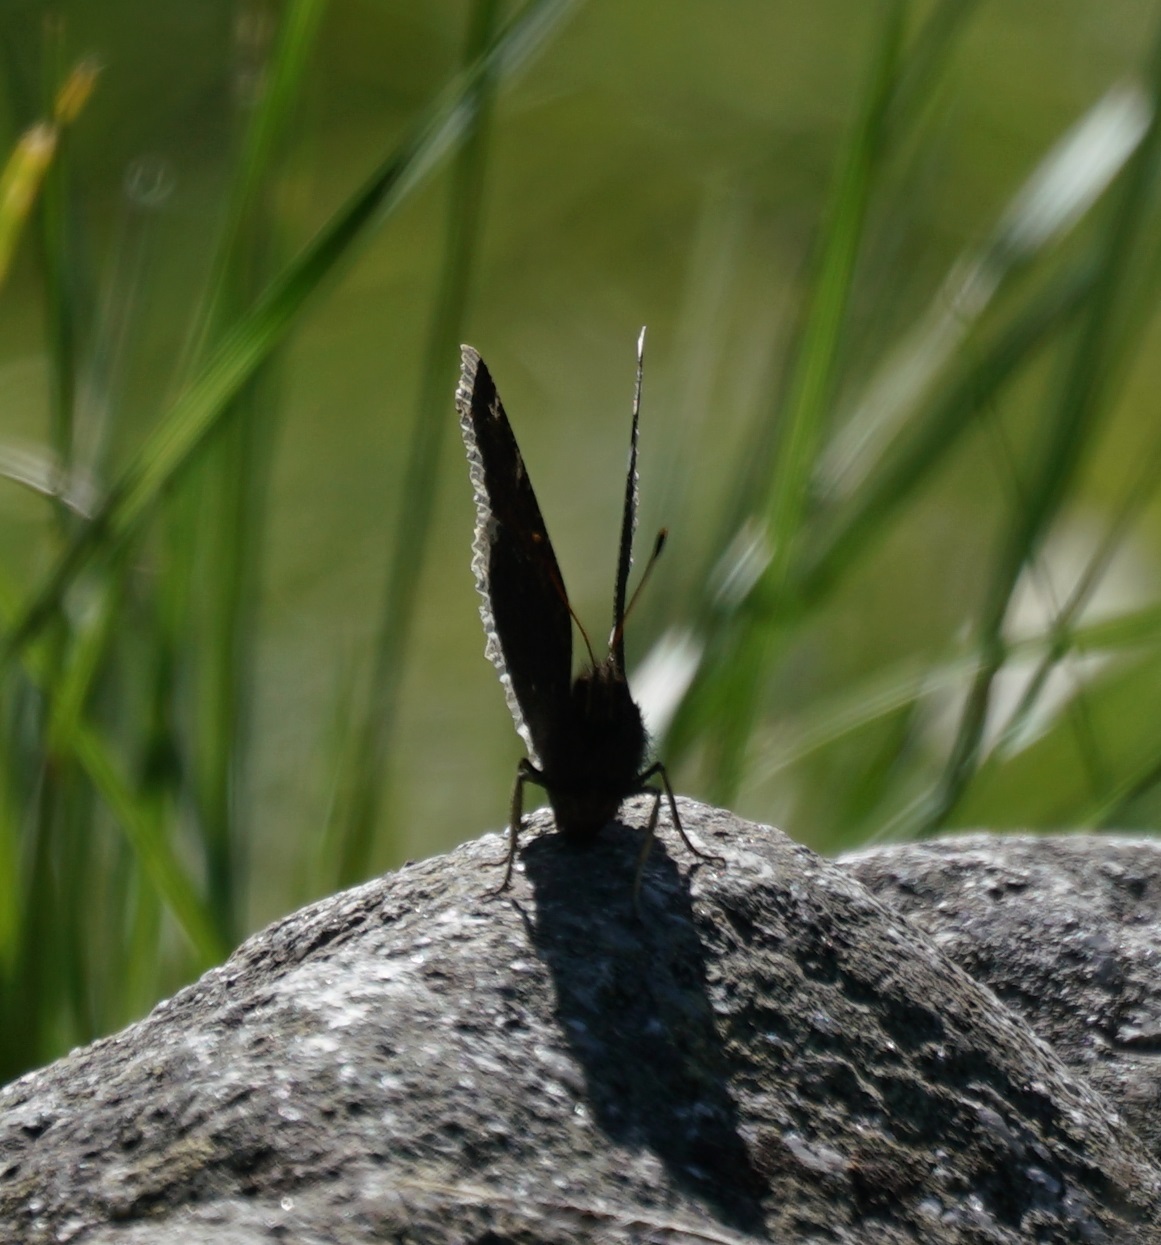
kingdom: Animalia
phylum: Arthropoda
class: Insecta
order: Lepidoptera
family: Nymphalidae
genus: Nymphalis
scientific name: Nymphalis antiopa
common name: Camberwell beauty
